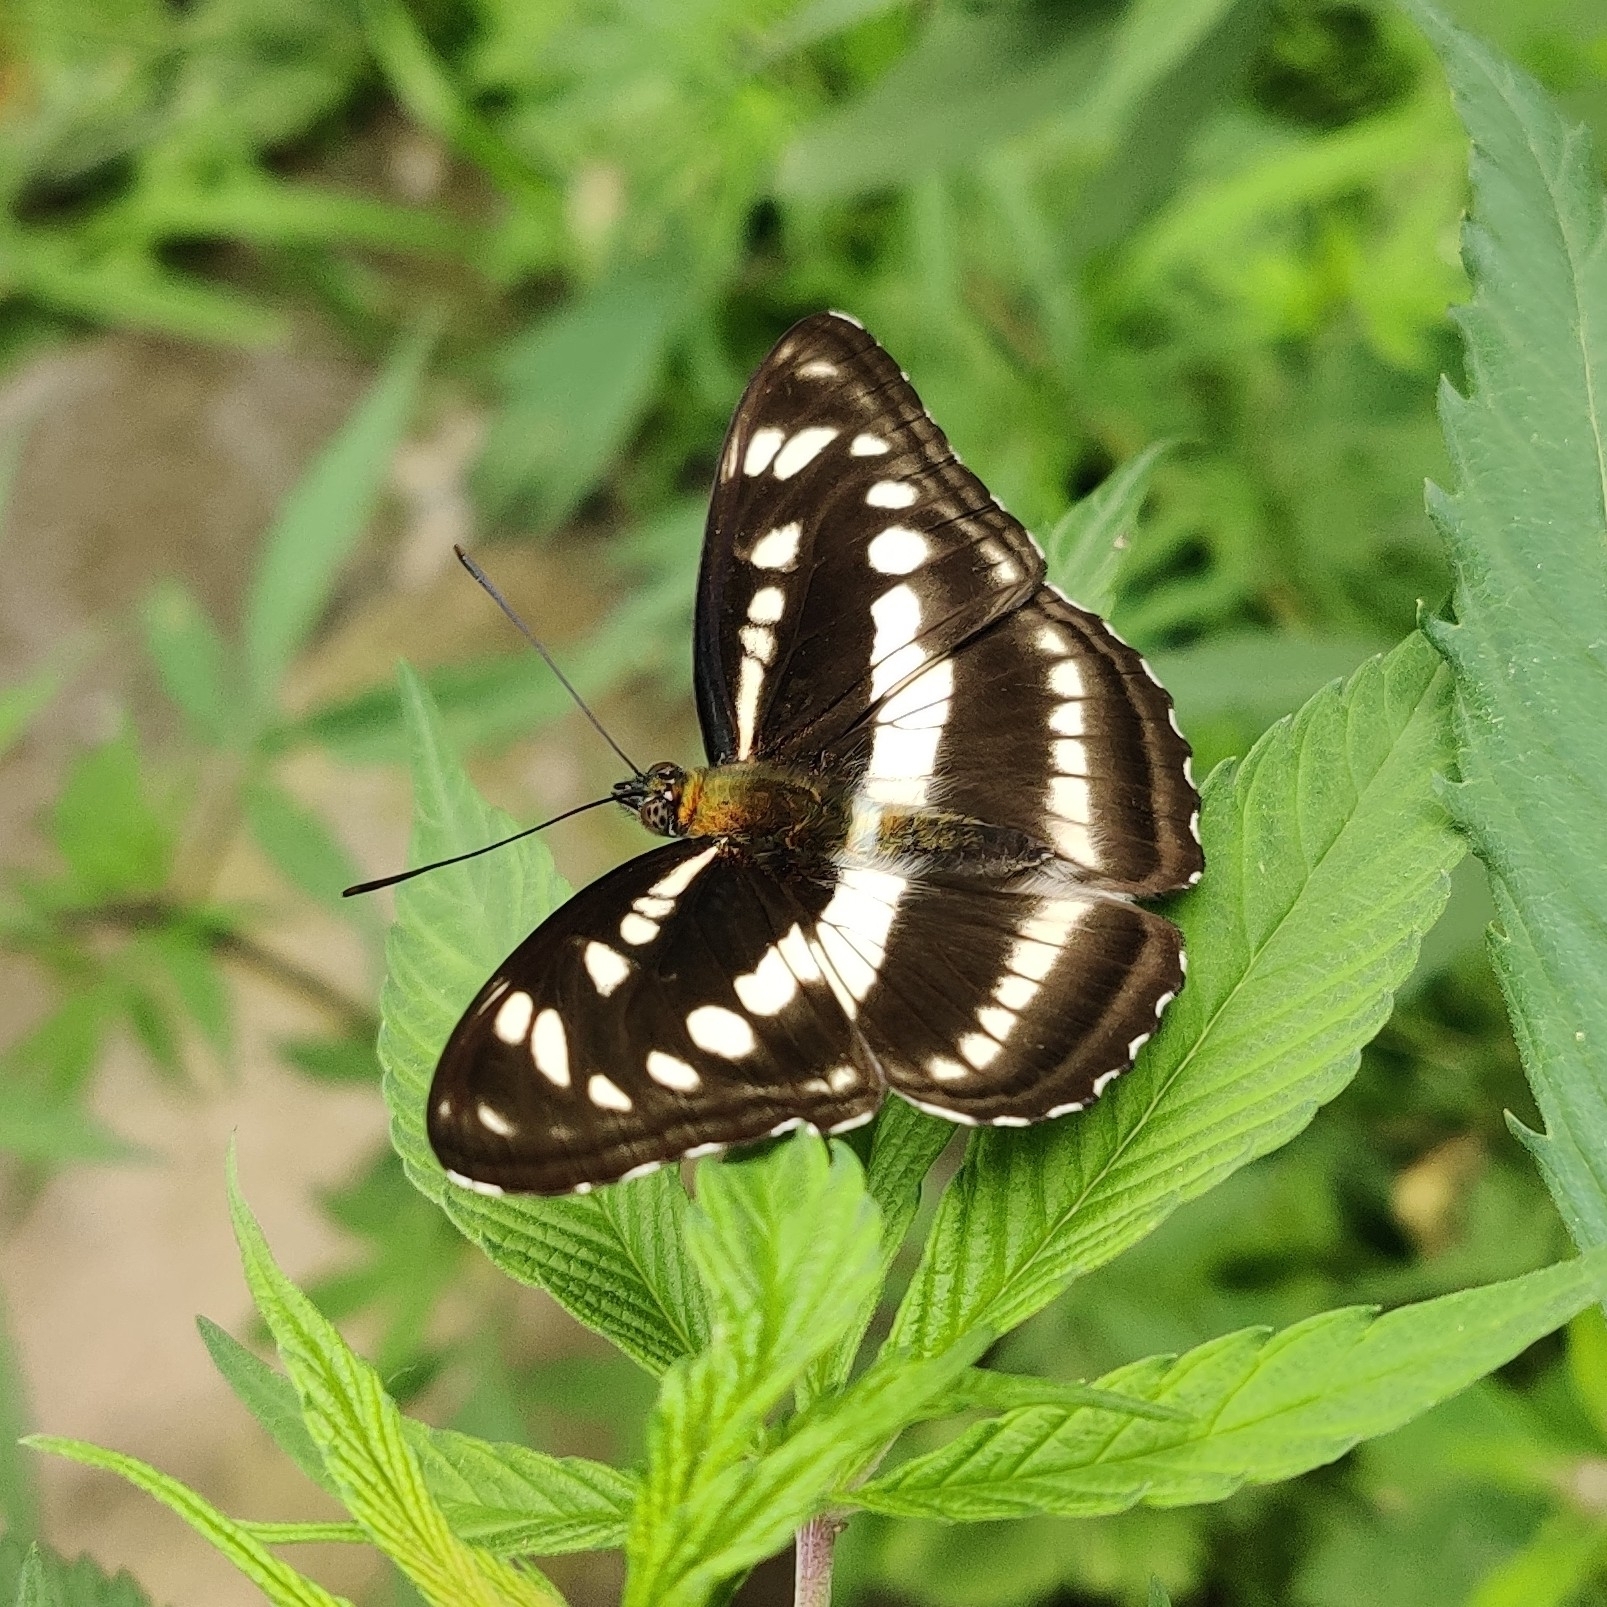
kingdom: Animalia
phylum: Arthropoda
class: Insecta
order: Lepidoptera
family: Nymphalidae
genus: Parathyma
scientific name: Parathyma opalina
